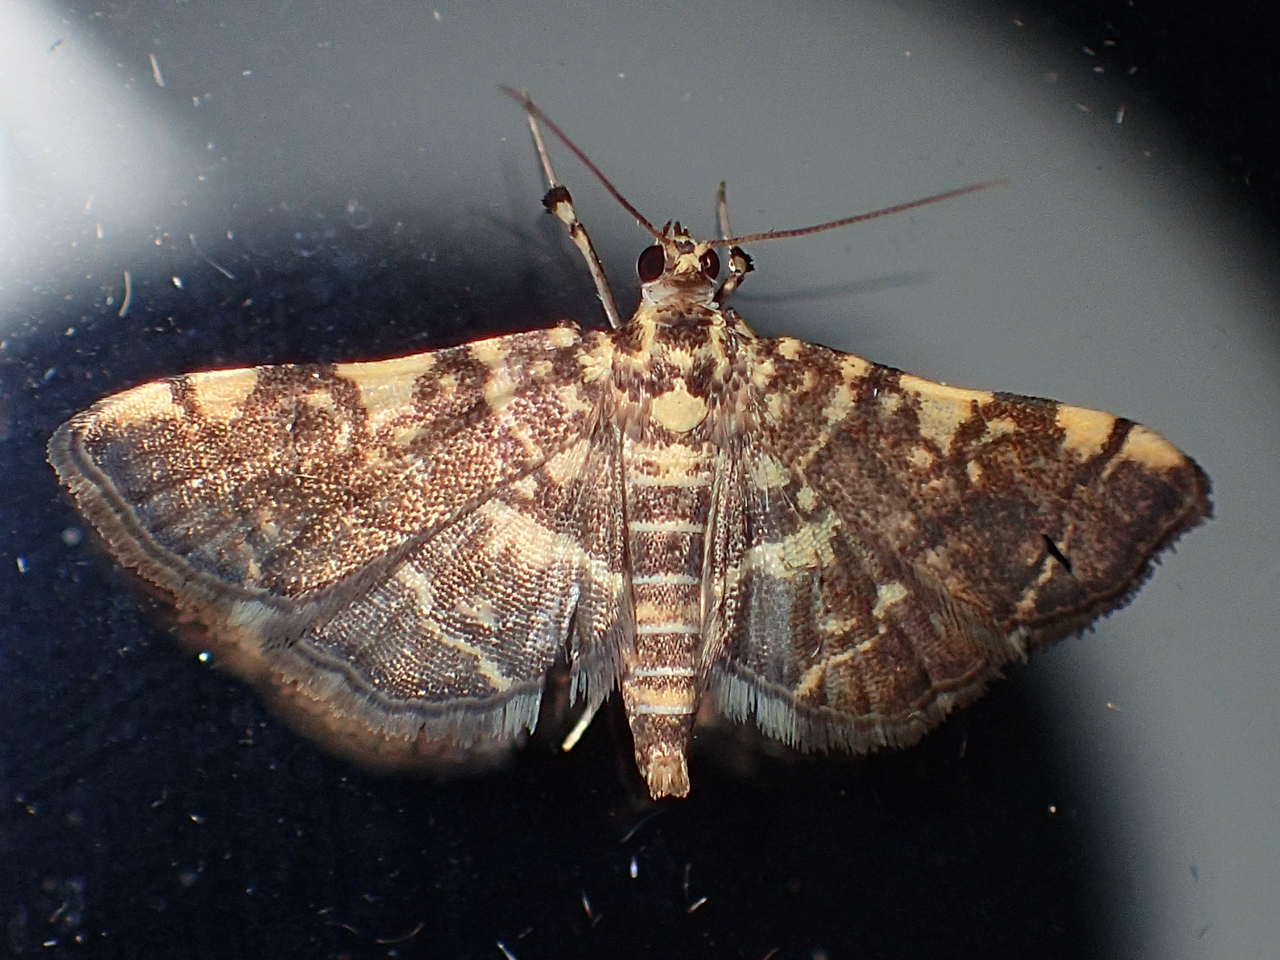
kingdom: Animalia
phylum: Arthropoda
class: Insecta
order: Lepidoptera
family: Crambidae
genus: Apogeshna
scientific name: Apogeshna stenialis
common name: Checkered apogeshna moth
